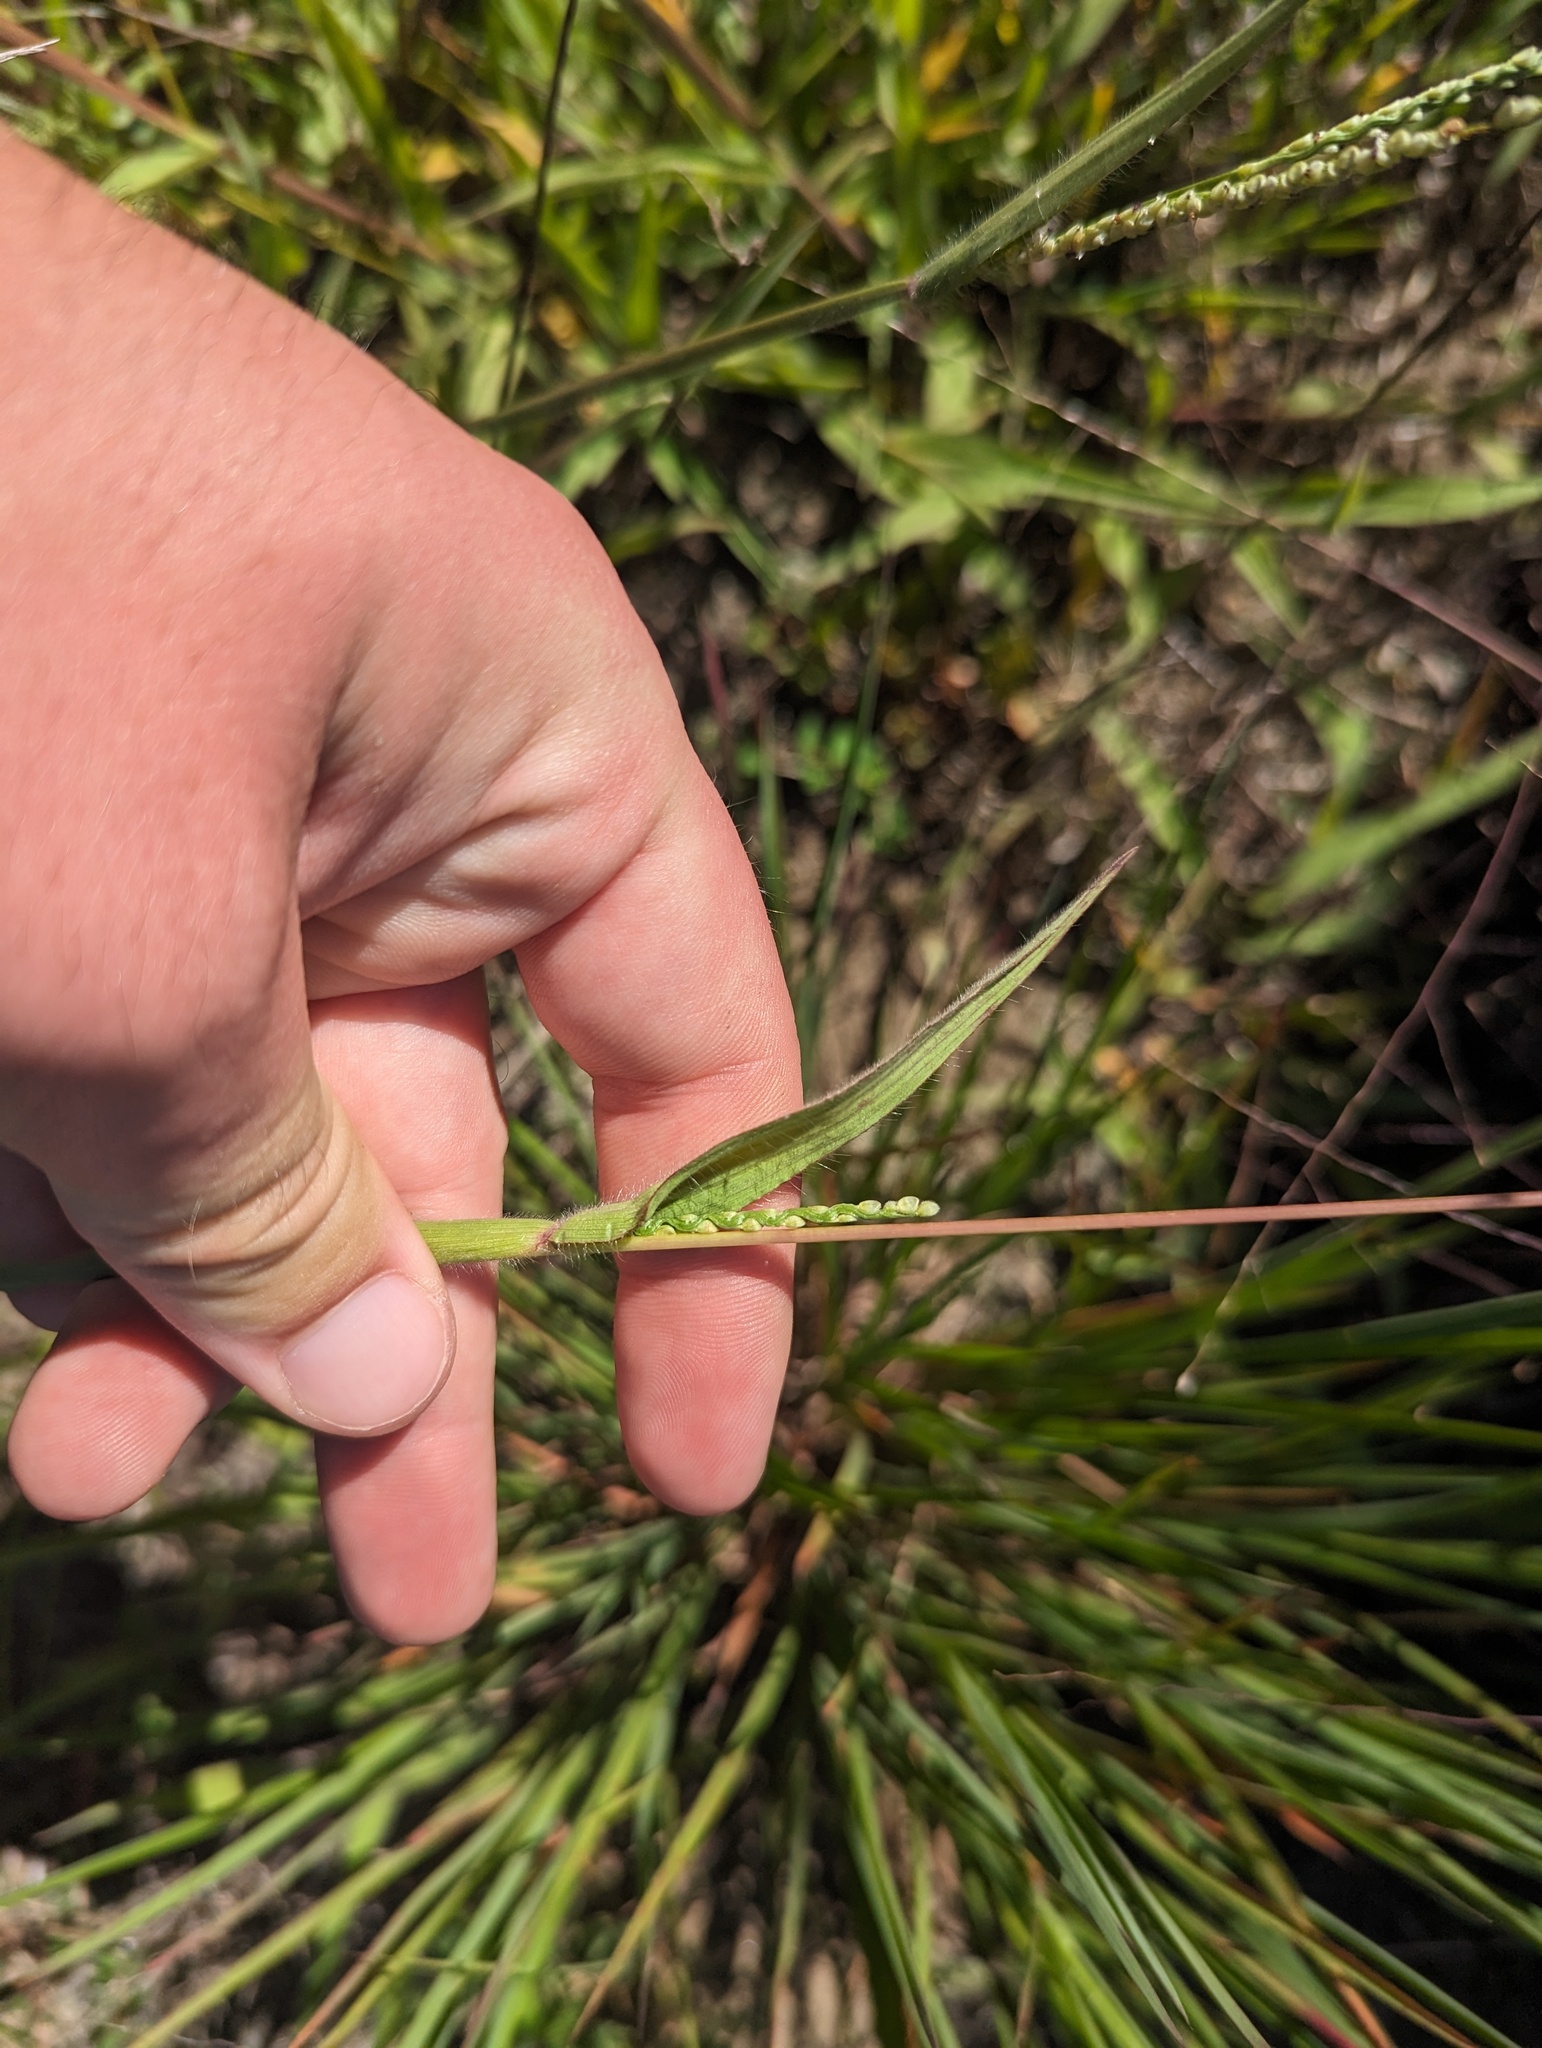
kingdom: Plantae
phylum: Tracheophyta
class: Liliopsida
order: Poales
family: Poaceae
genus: Paspalum
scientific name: Paspalum setaceum
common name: Slender paspalum
